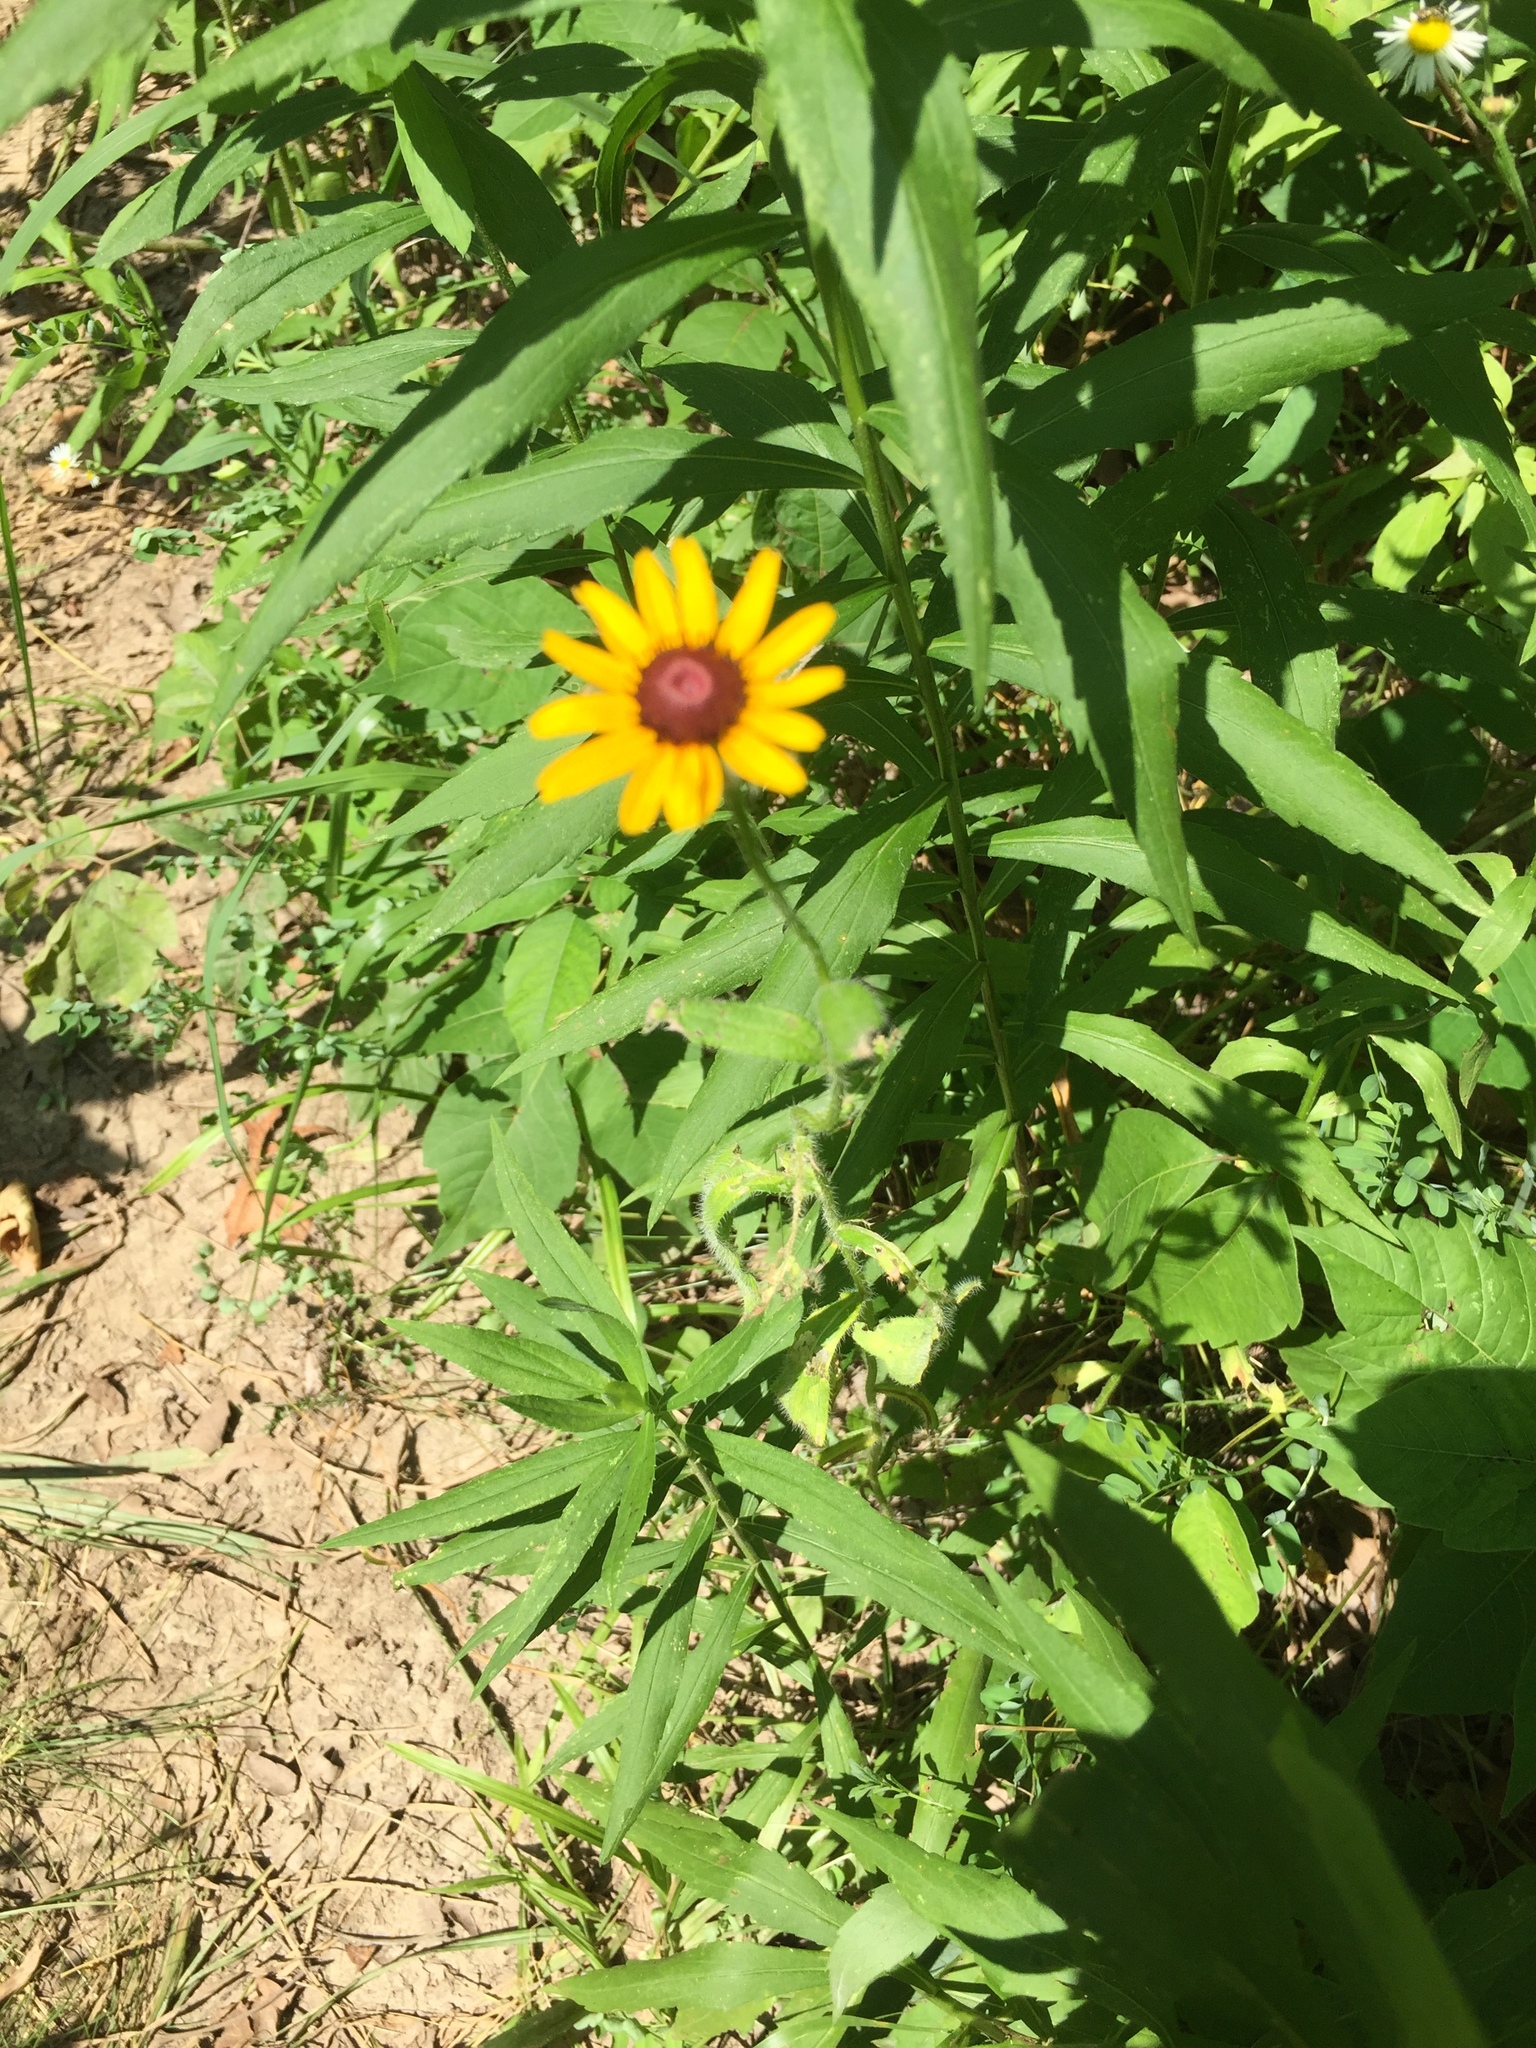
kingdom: Plantae
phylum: Tracheophyta
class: Magnoliopsida
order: Asterales
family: Asteraceae
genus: Rudbeckia
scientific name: Rudbeckia hirta
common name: Black-eyed-susan
